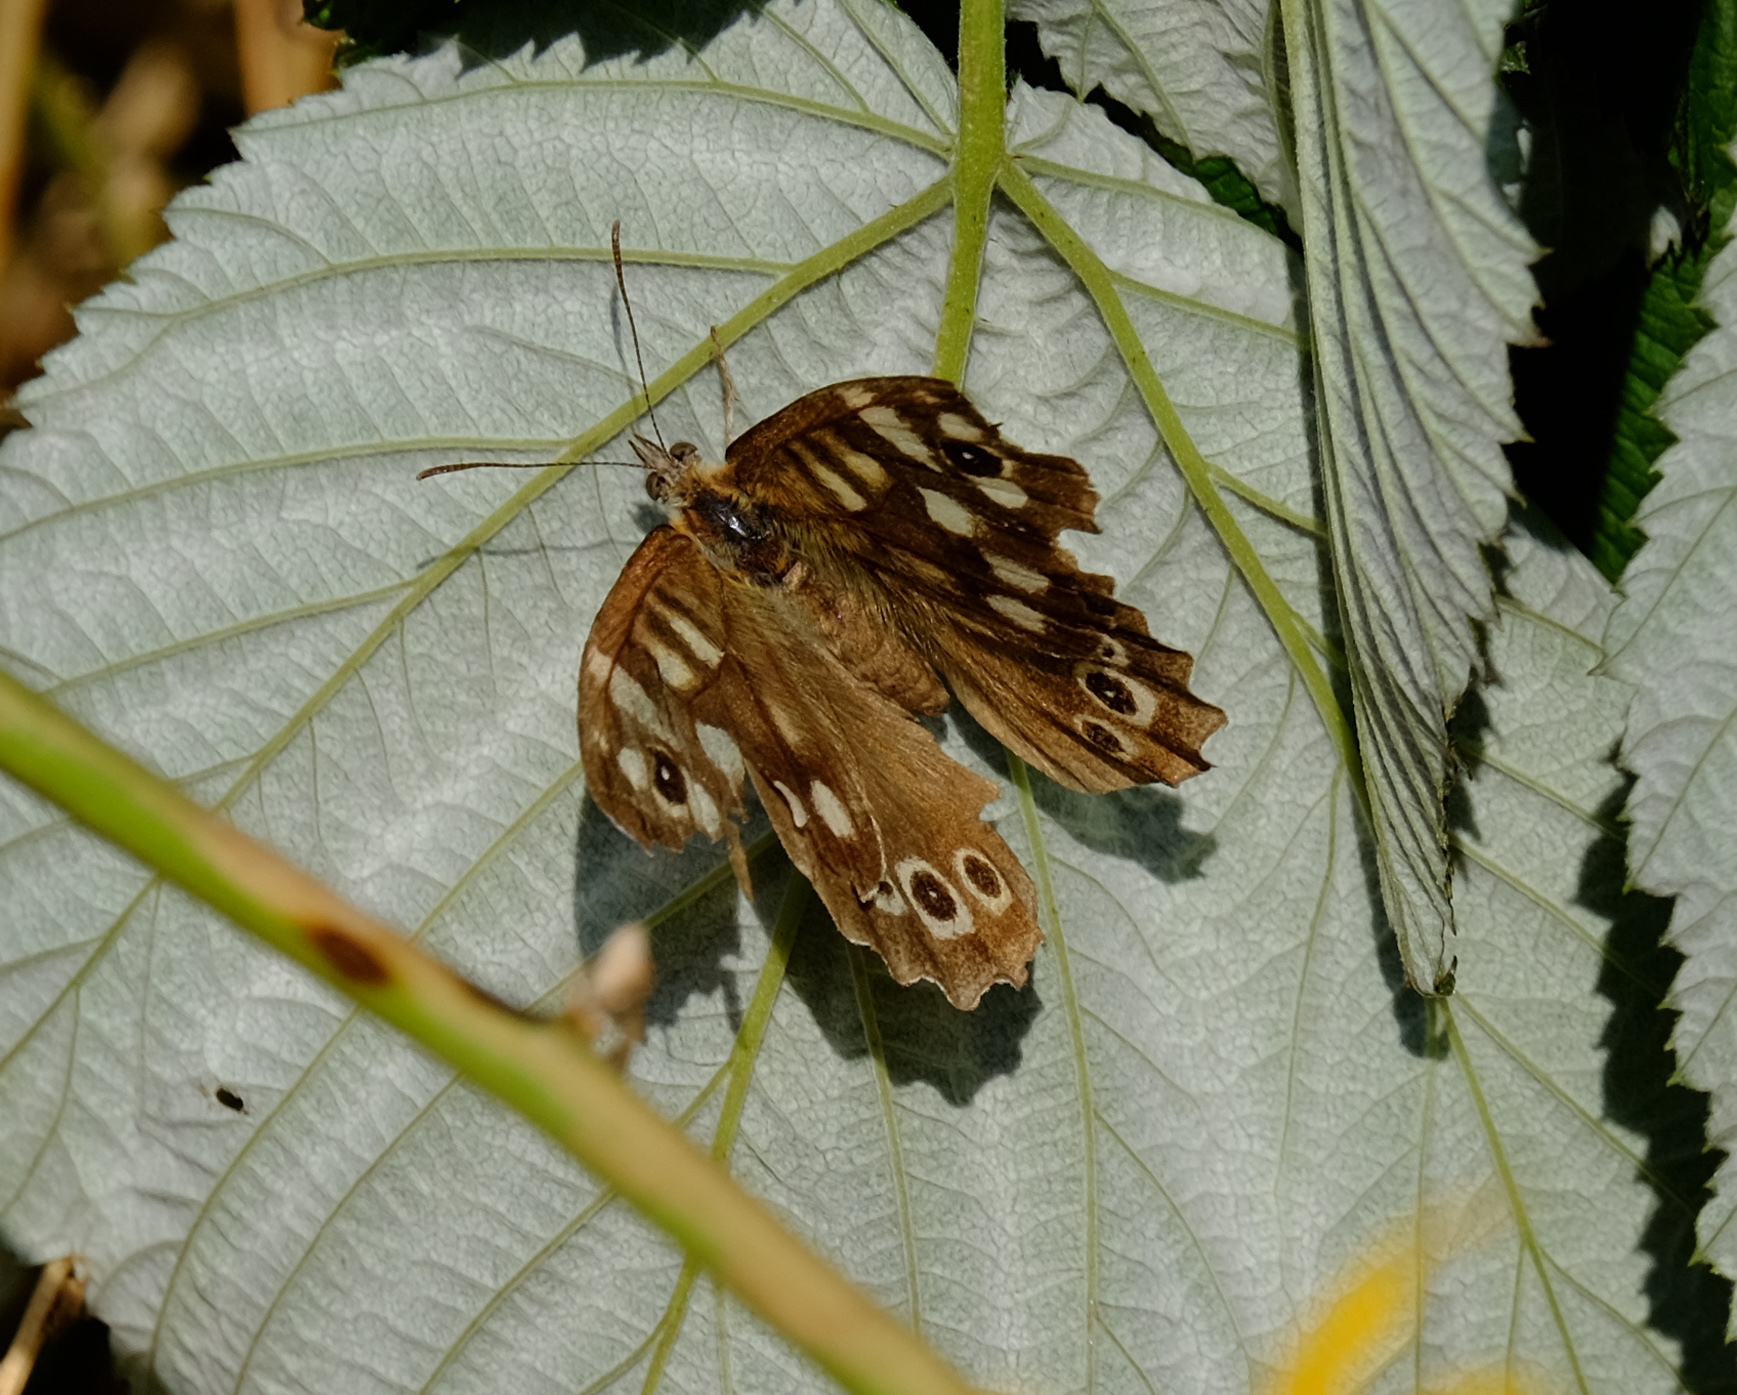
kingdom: Animalia
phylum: Arthropoda
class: Insecta
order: Lepidoptera
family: Nymphalidae
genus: Pararge
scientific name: Pararge aegeria
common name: Speckled wood
